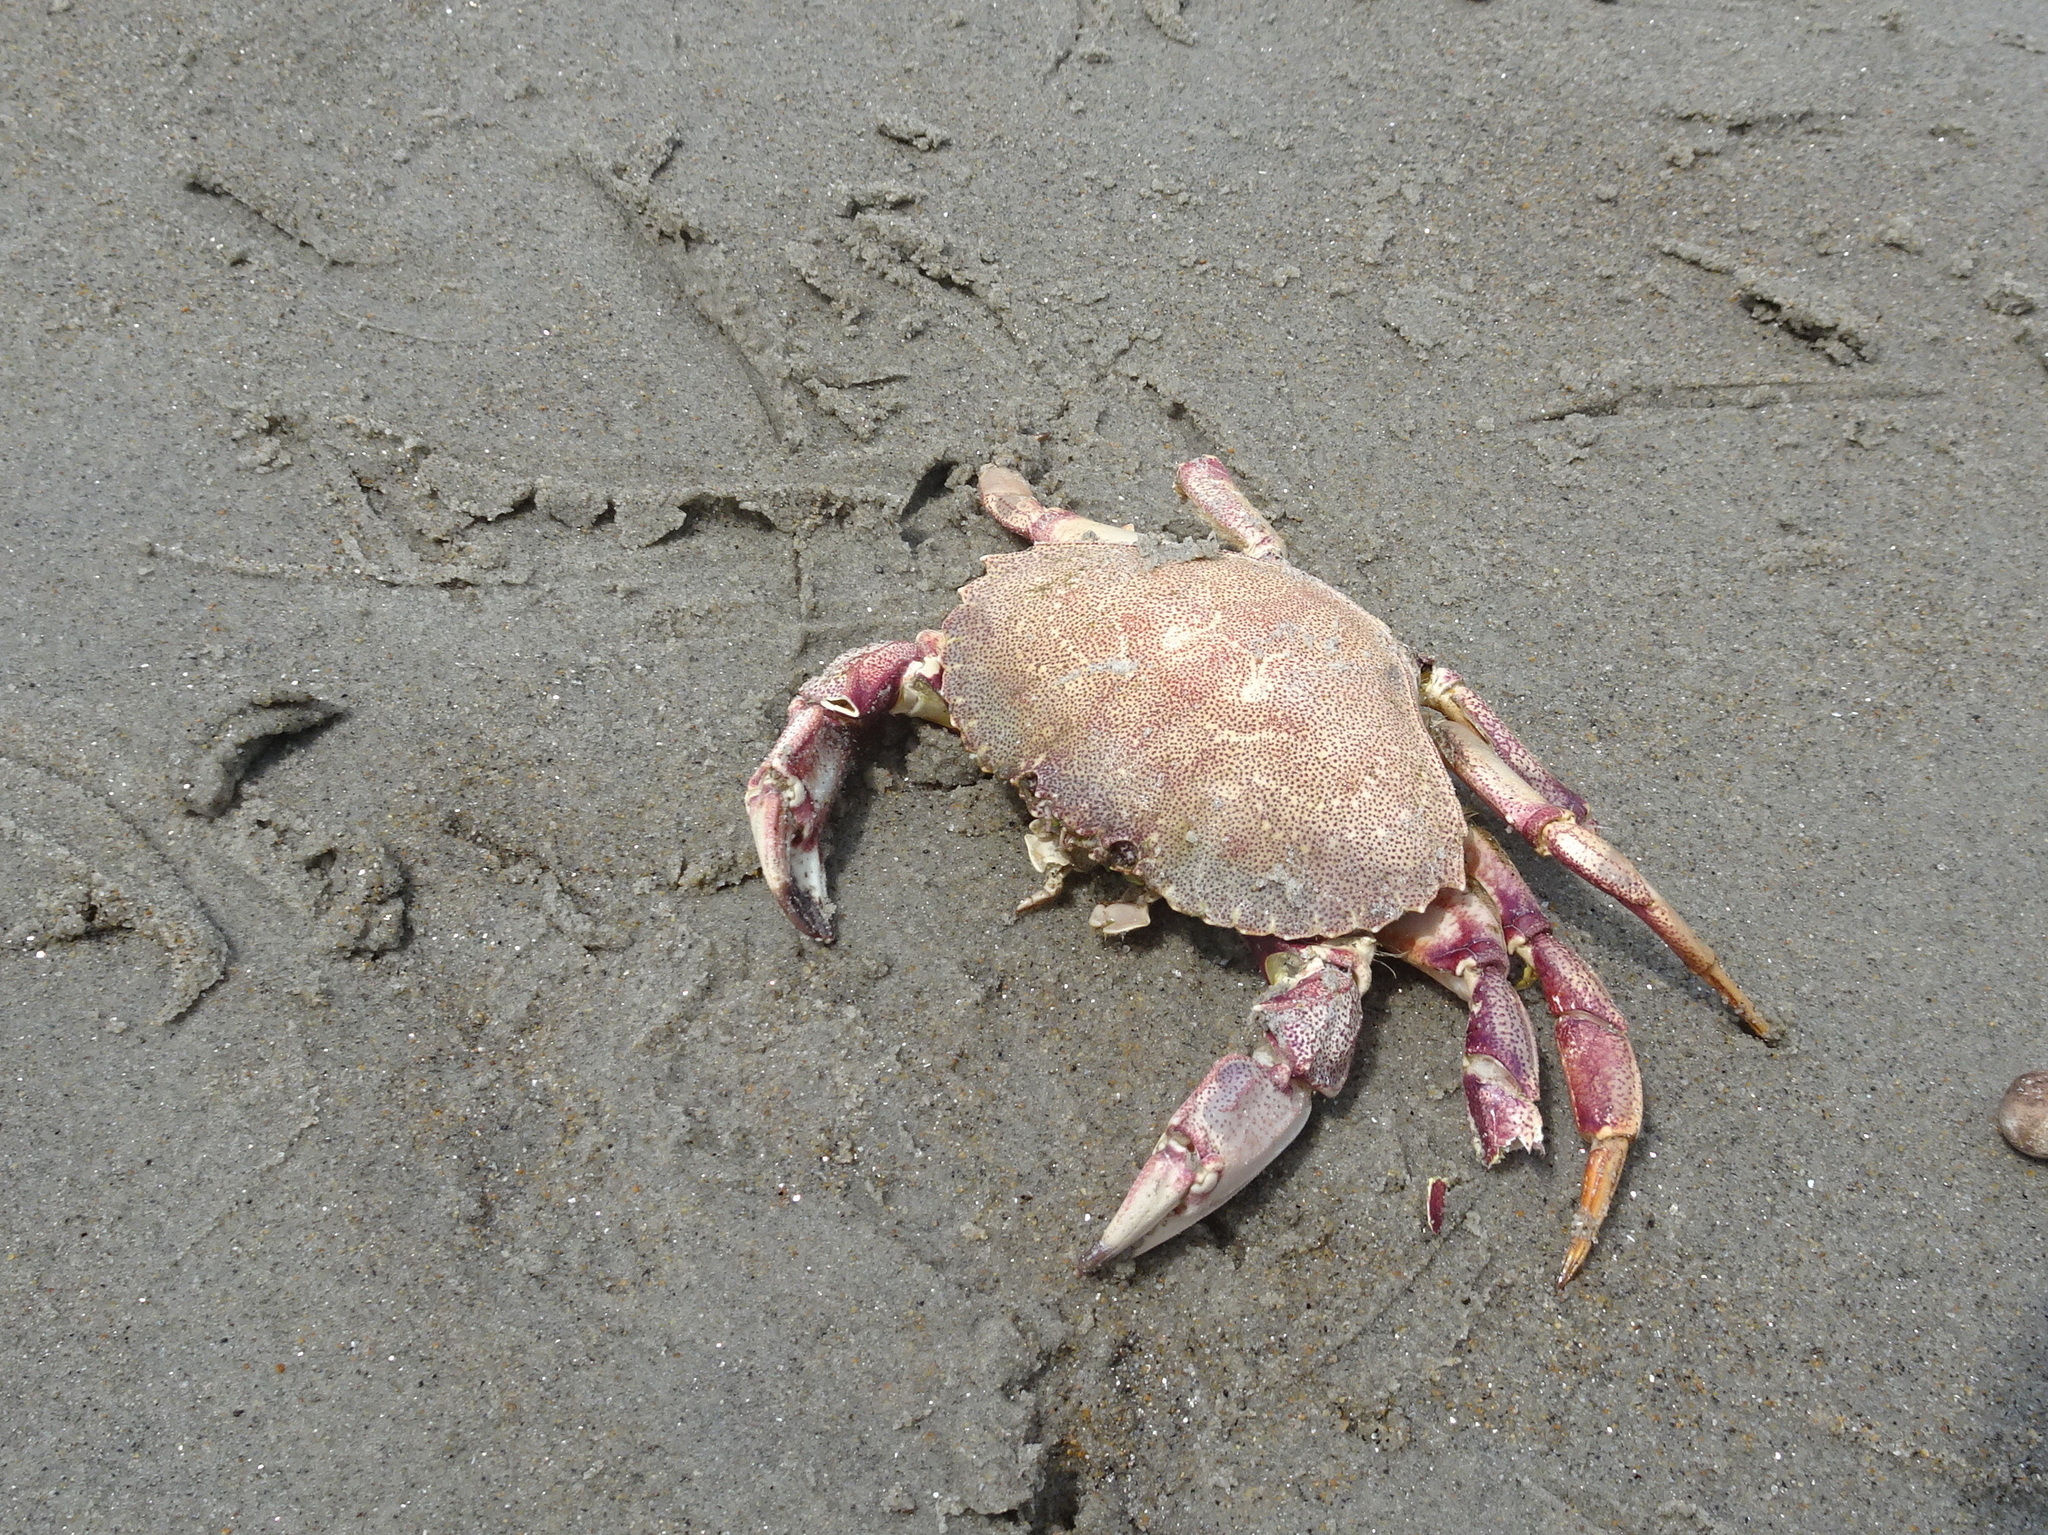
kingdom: Animalia
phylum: Arthropoda
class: Malacostraca
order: Decapoda
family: Cancridae
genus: Cancer
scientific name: Cancer irroratus
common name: Atlantic rock crab
